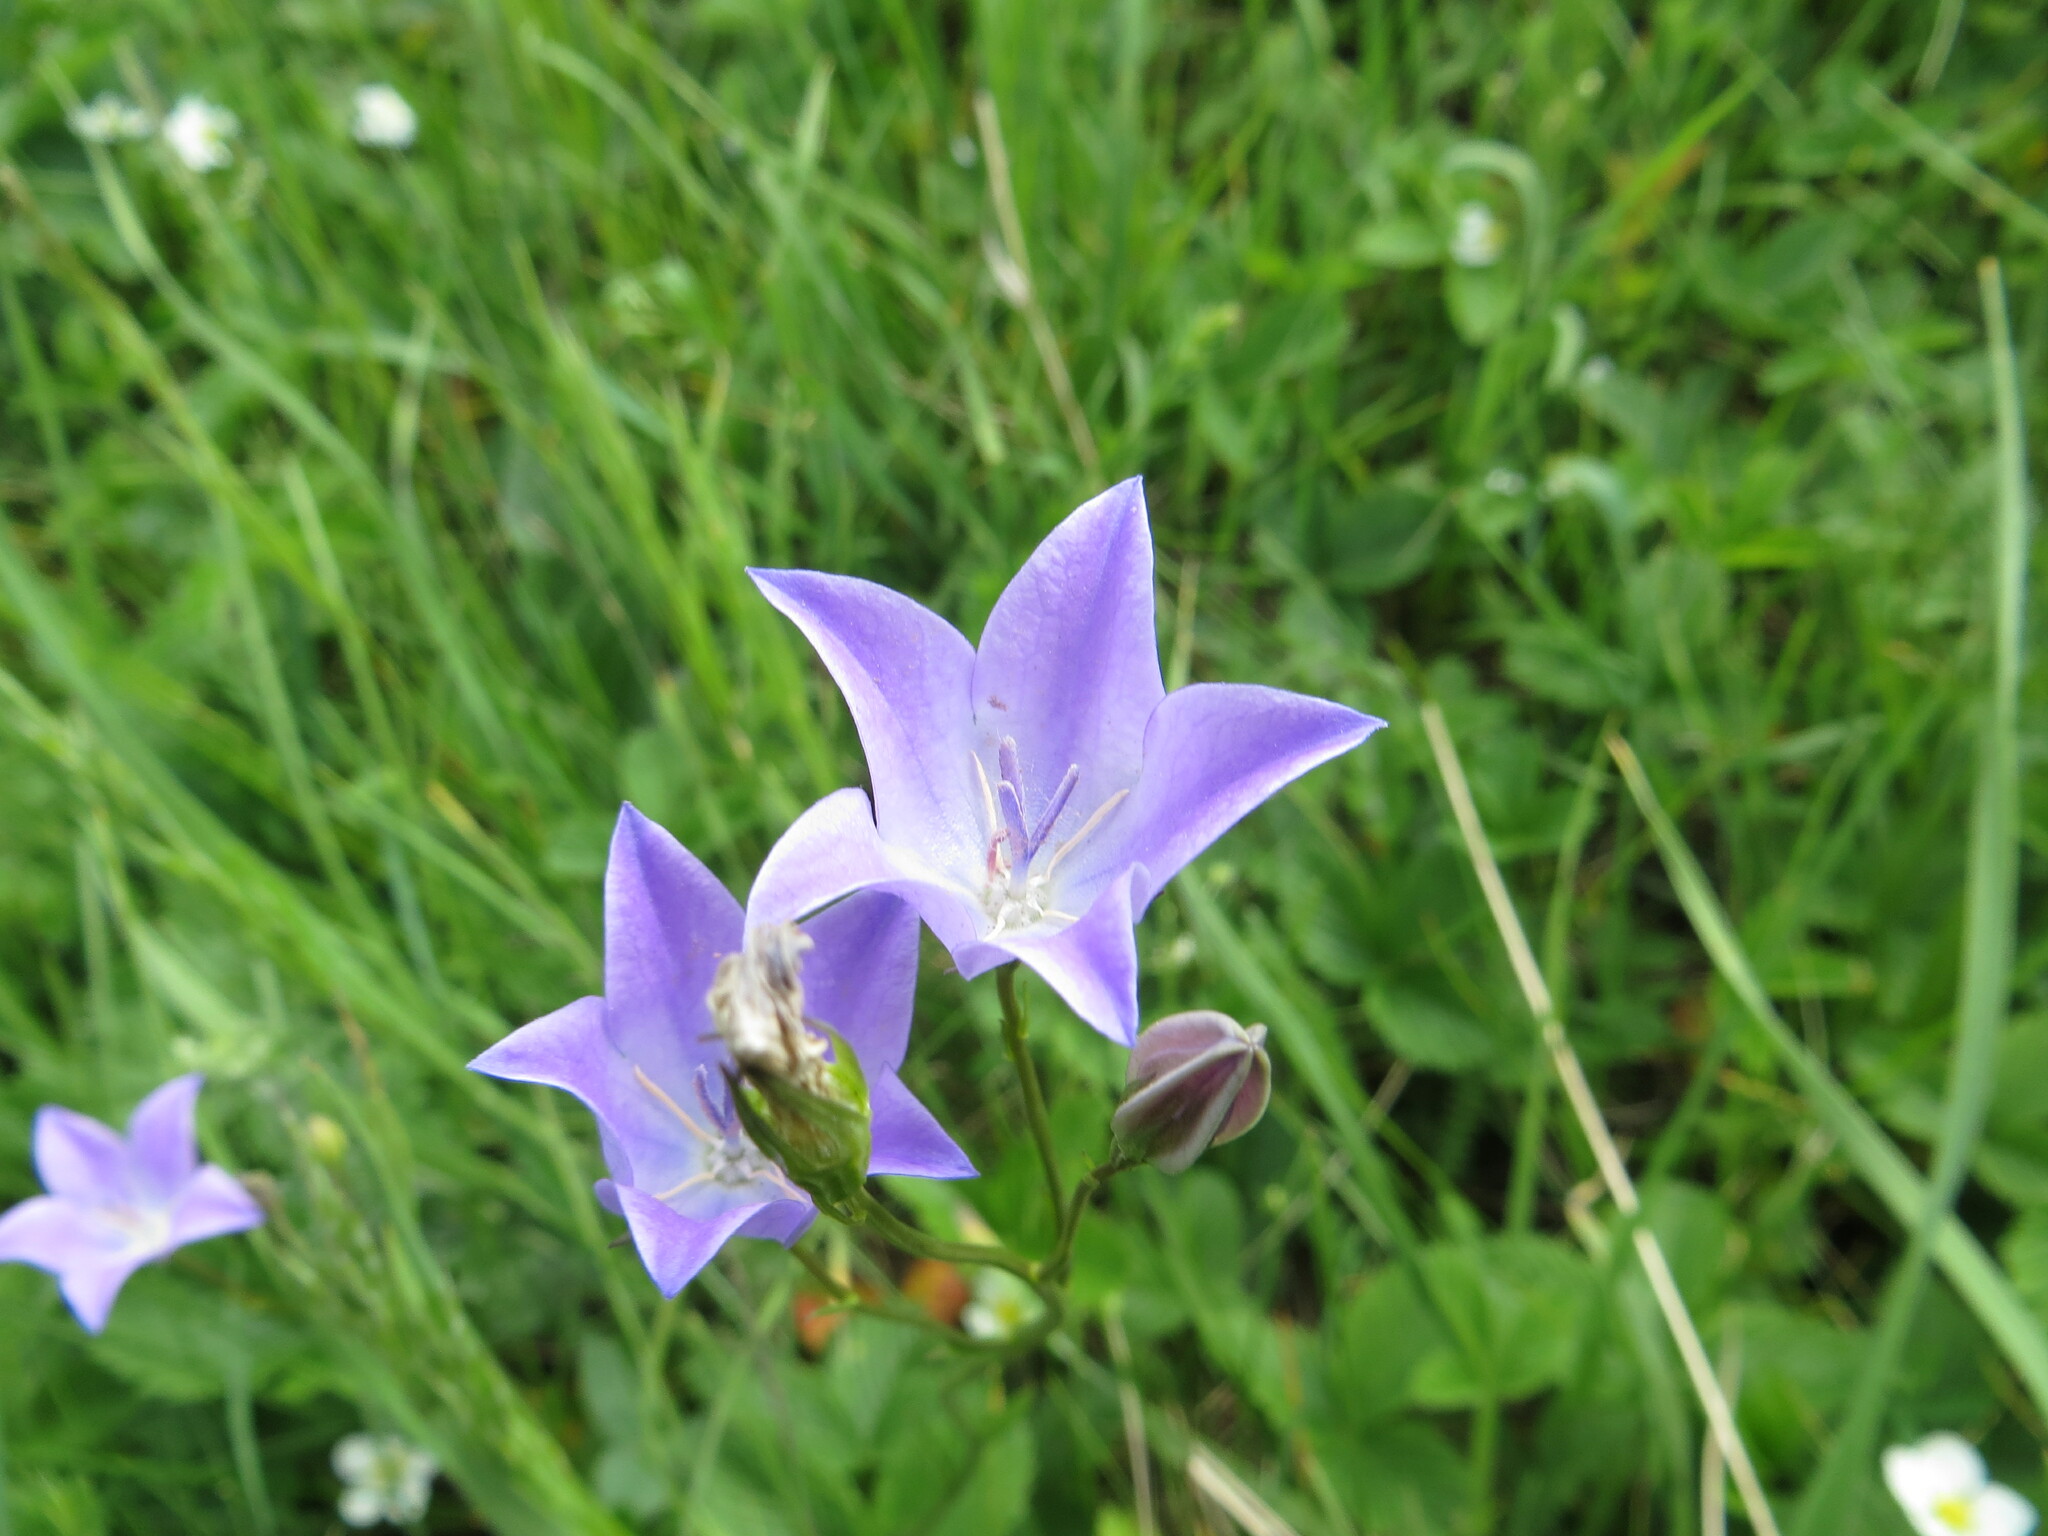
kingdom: Plantae
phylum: Tracheophyta
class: Magnoliopsida
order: Asterales
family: Campanulaceae
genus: Campanula
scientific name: Campanula stevenii
